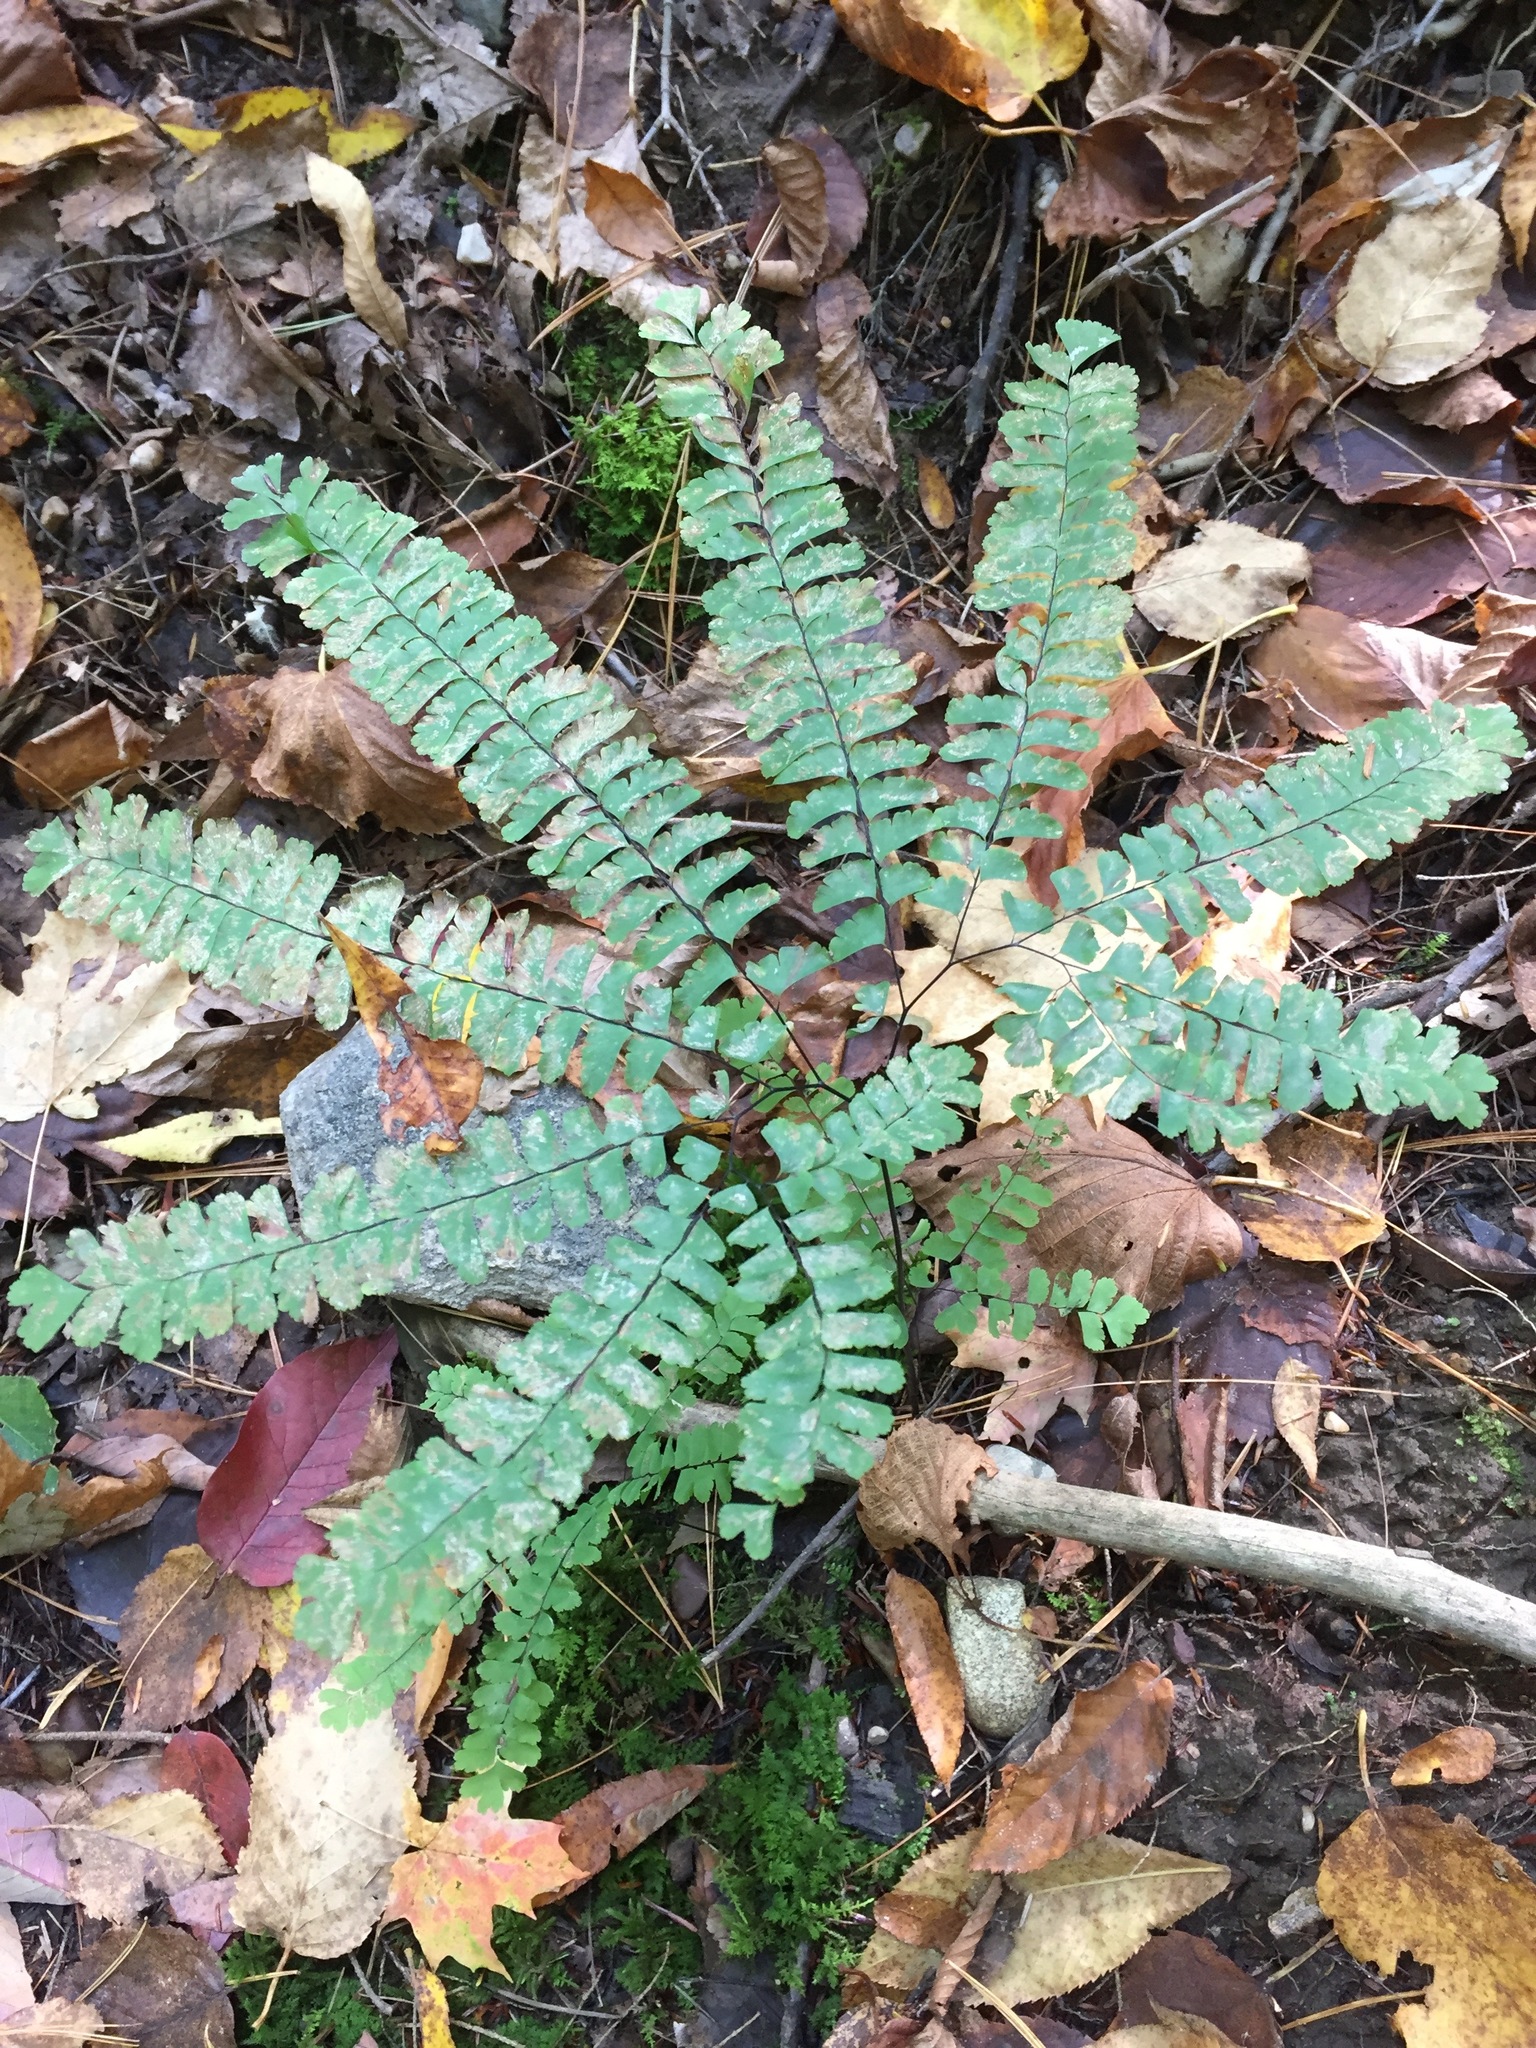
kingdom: Plantae
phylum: Tracheophyta
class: Polypodiopsida
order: Polypodiales
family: Pteridaceae
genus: Adiantum
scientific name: Adiantum pedatum
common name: Five-finger fern
